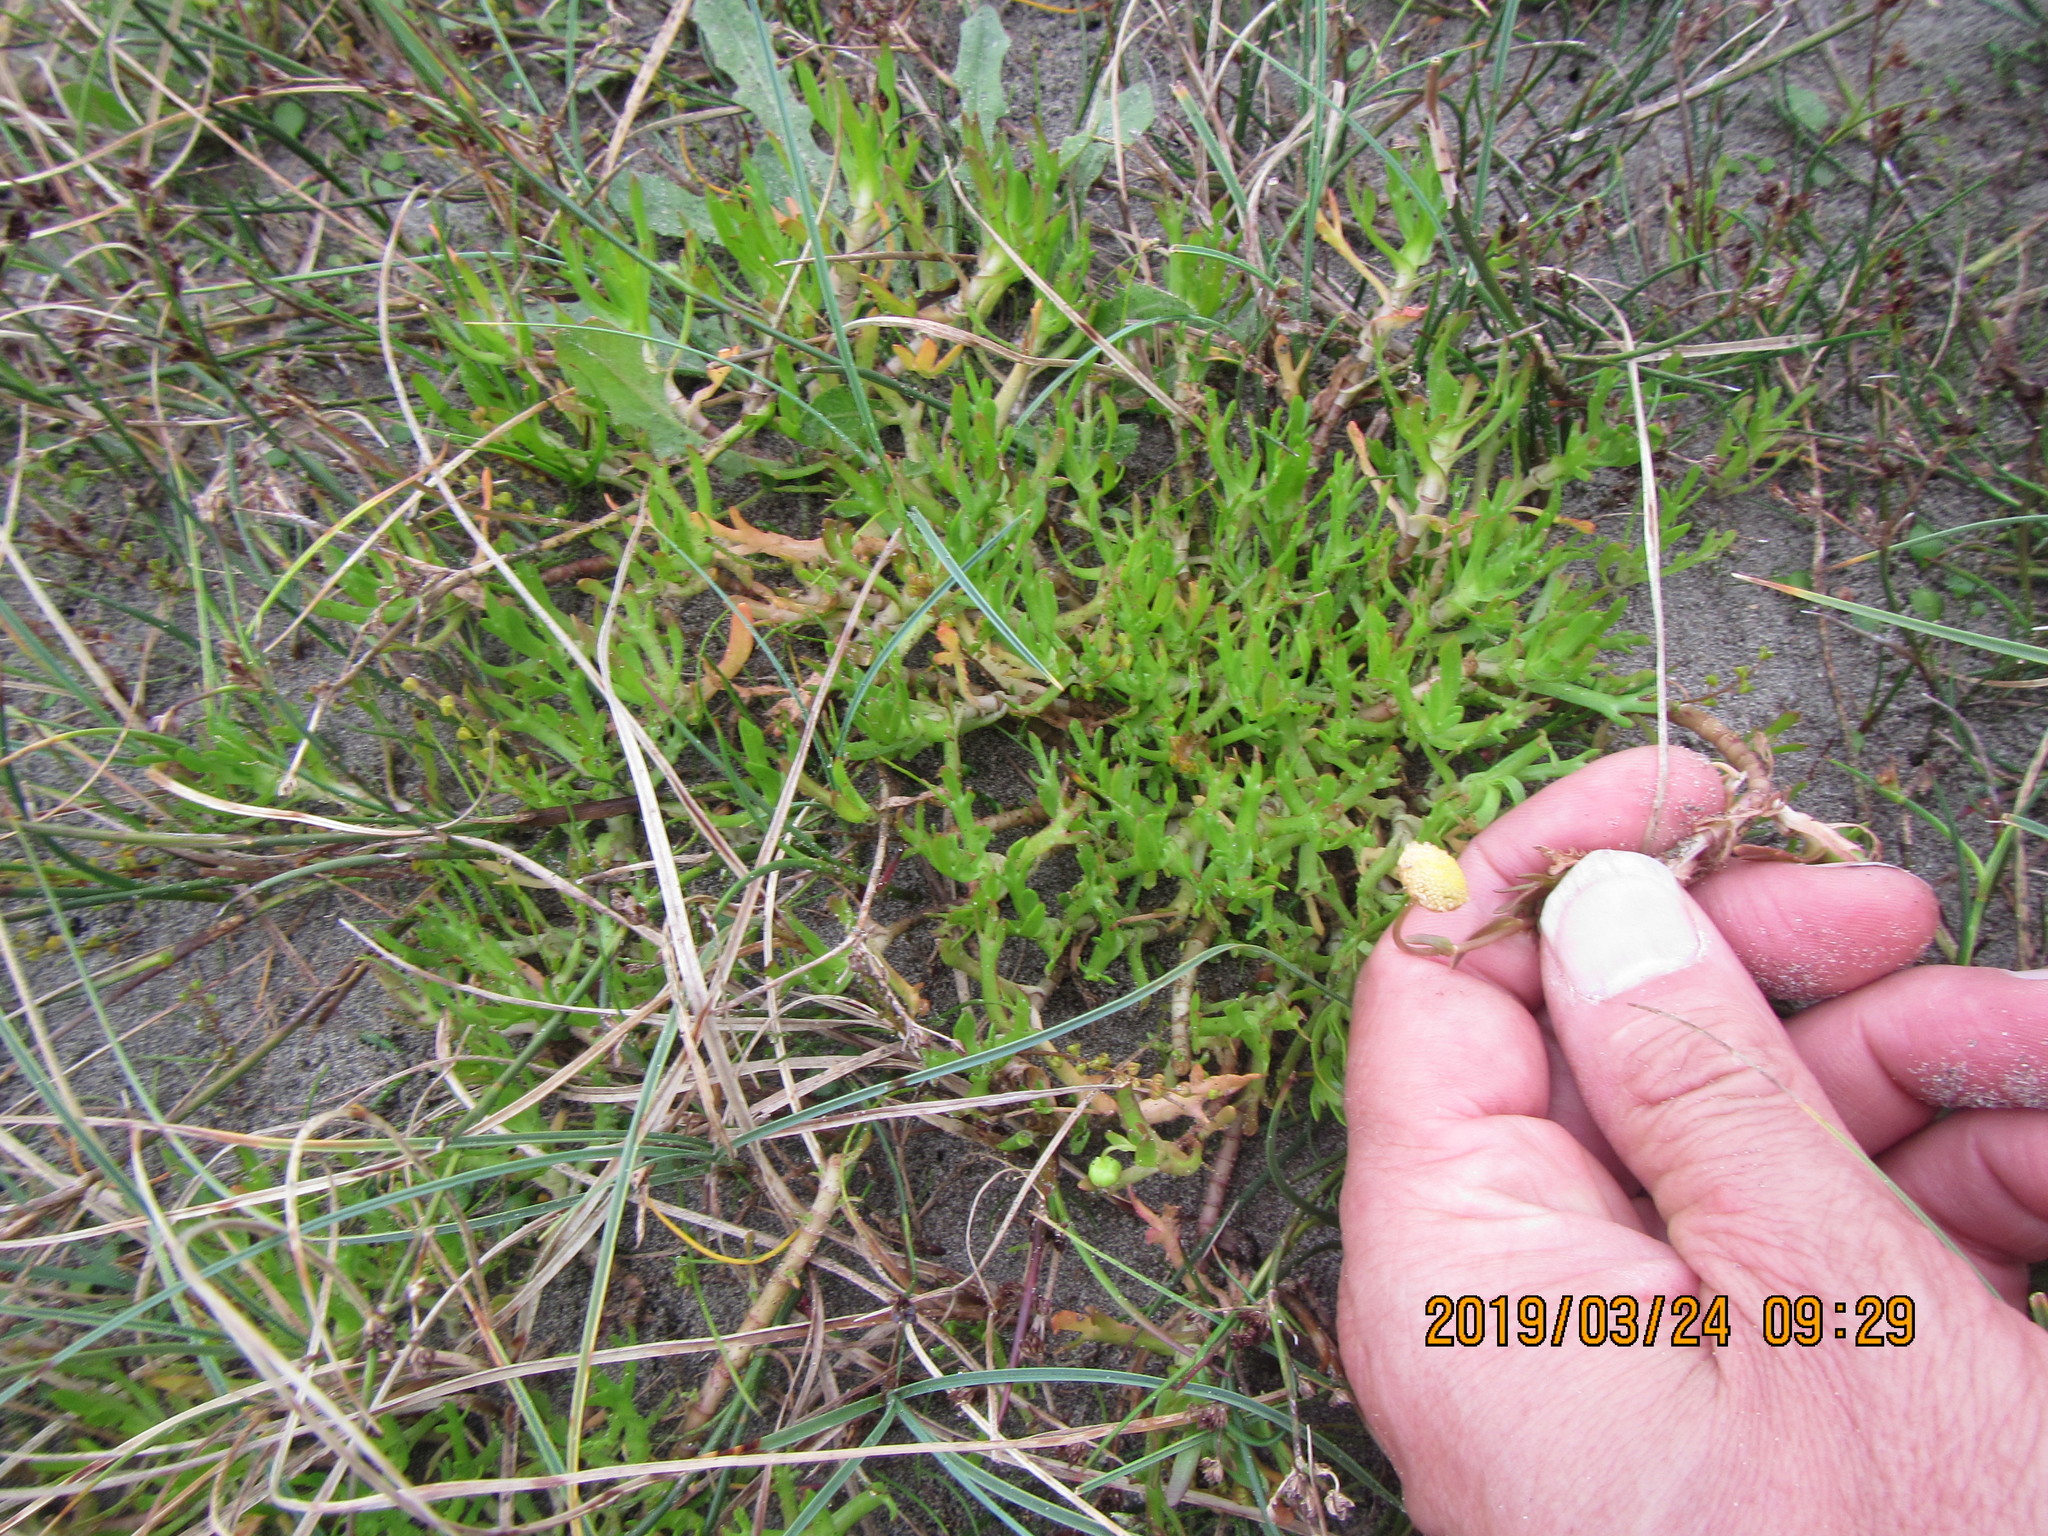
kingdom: Plantae
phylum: Tracheophyta
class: Magnoliopsida
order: Asterales
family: Asteraceae
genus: Cotula
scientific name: Cotula coronopifolia
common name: Buttonweed
